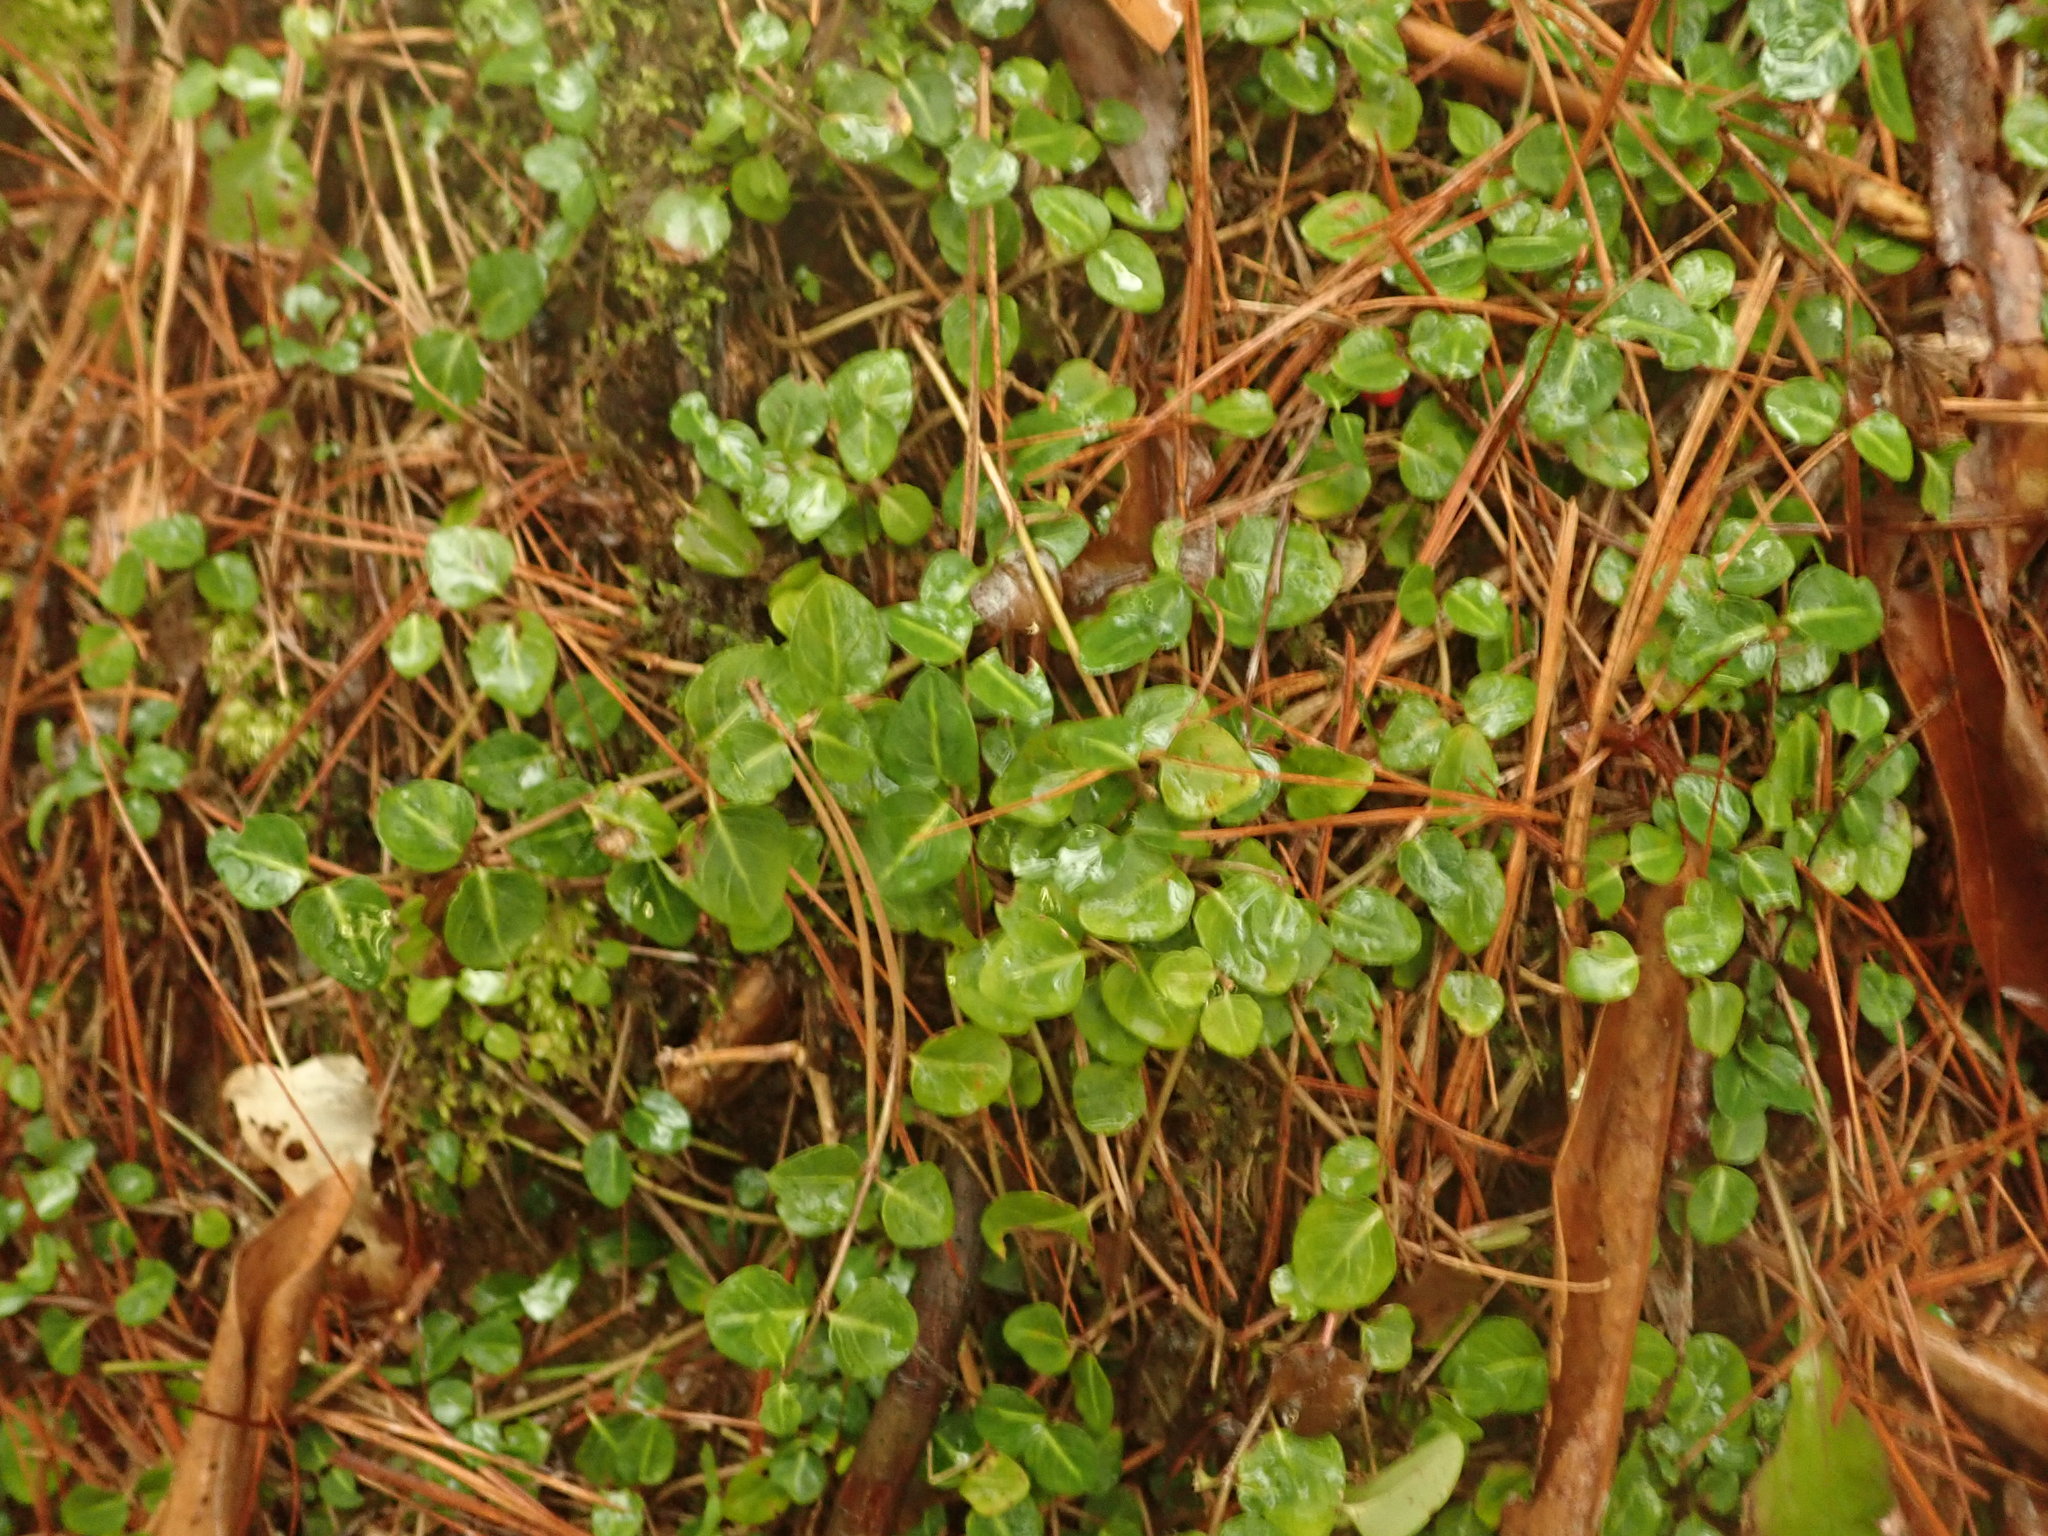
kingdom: Plantae
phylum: Tracheophyta
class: Magnoliopsida
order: Gentianales
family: Rubiaceae
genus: Mitchella
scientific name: Mitchella repens
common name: Partridge-berry
